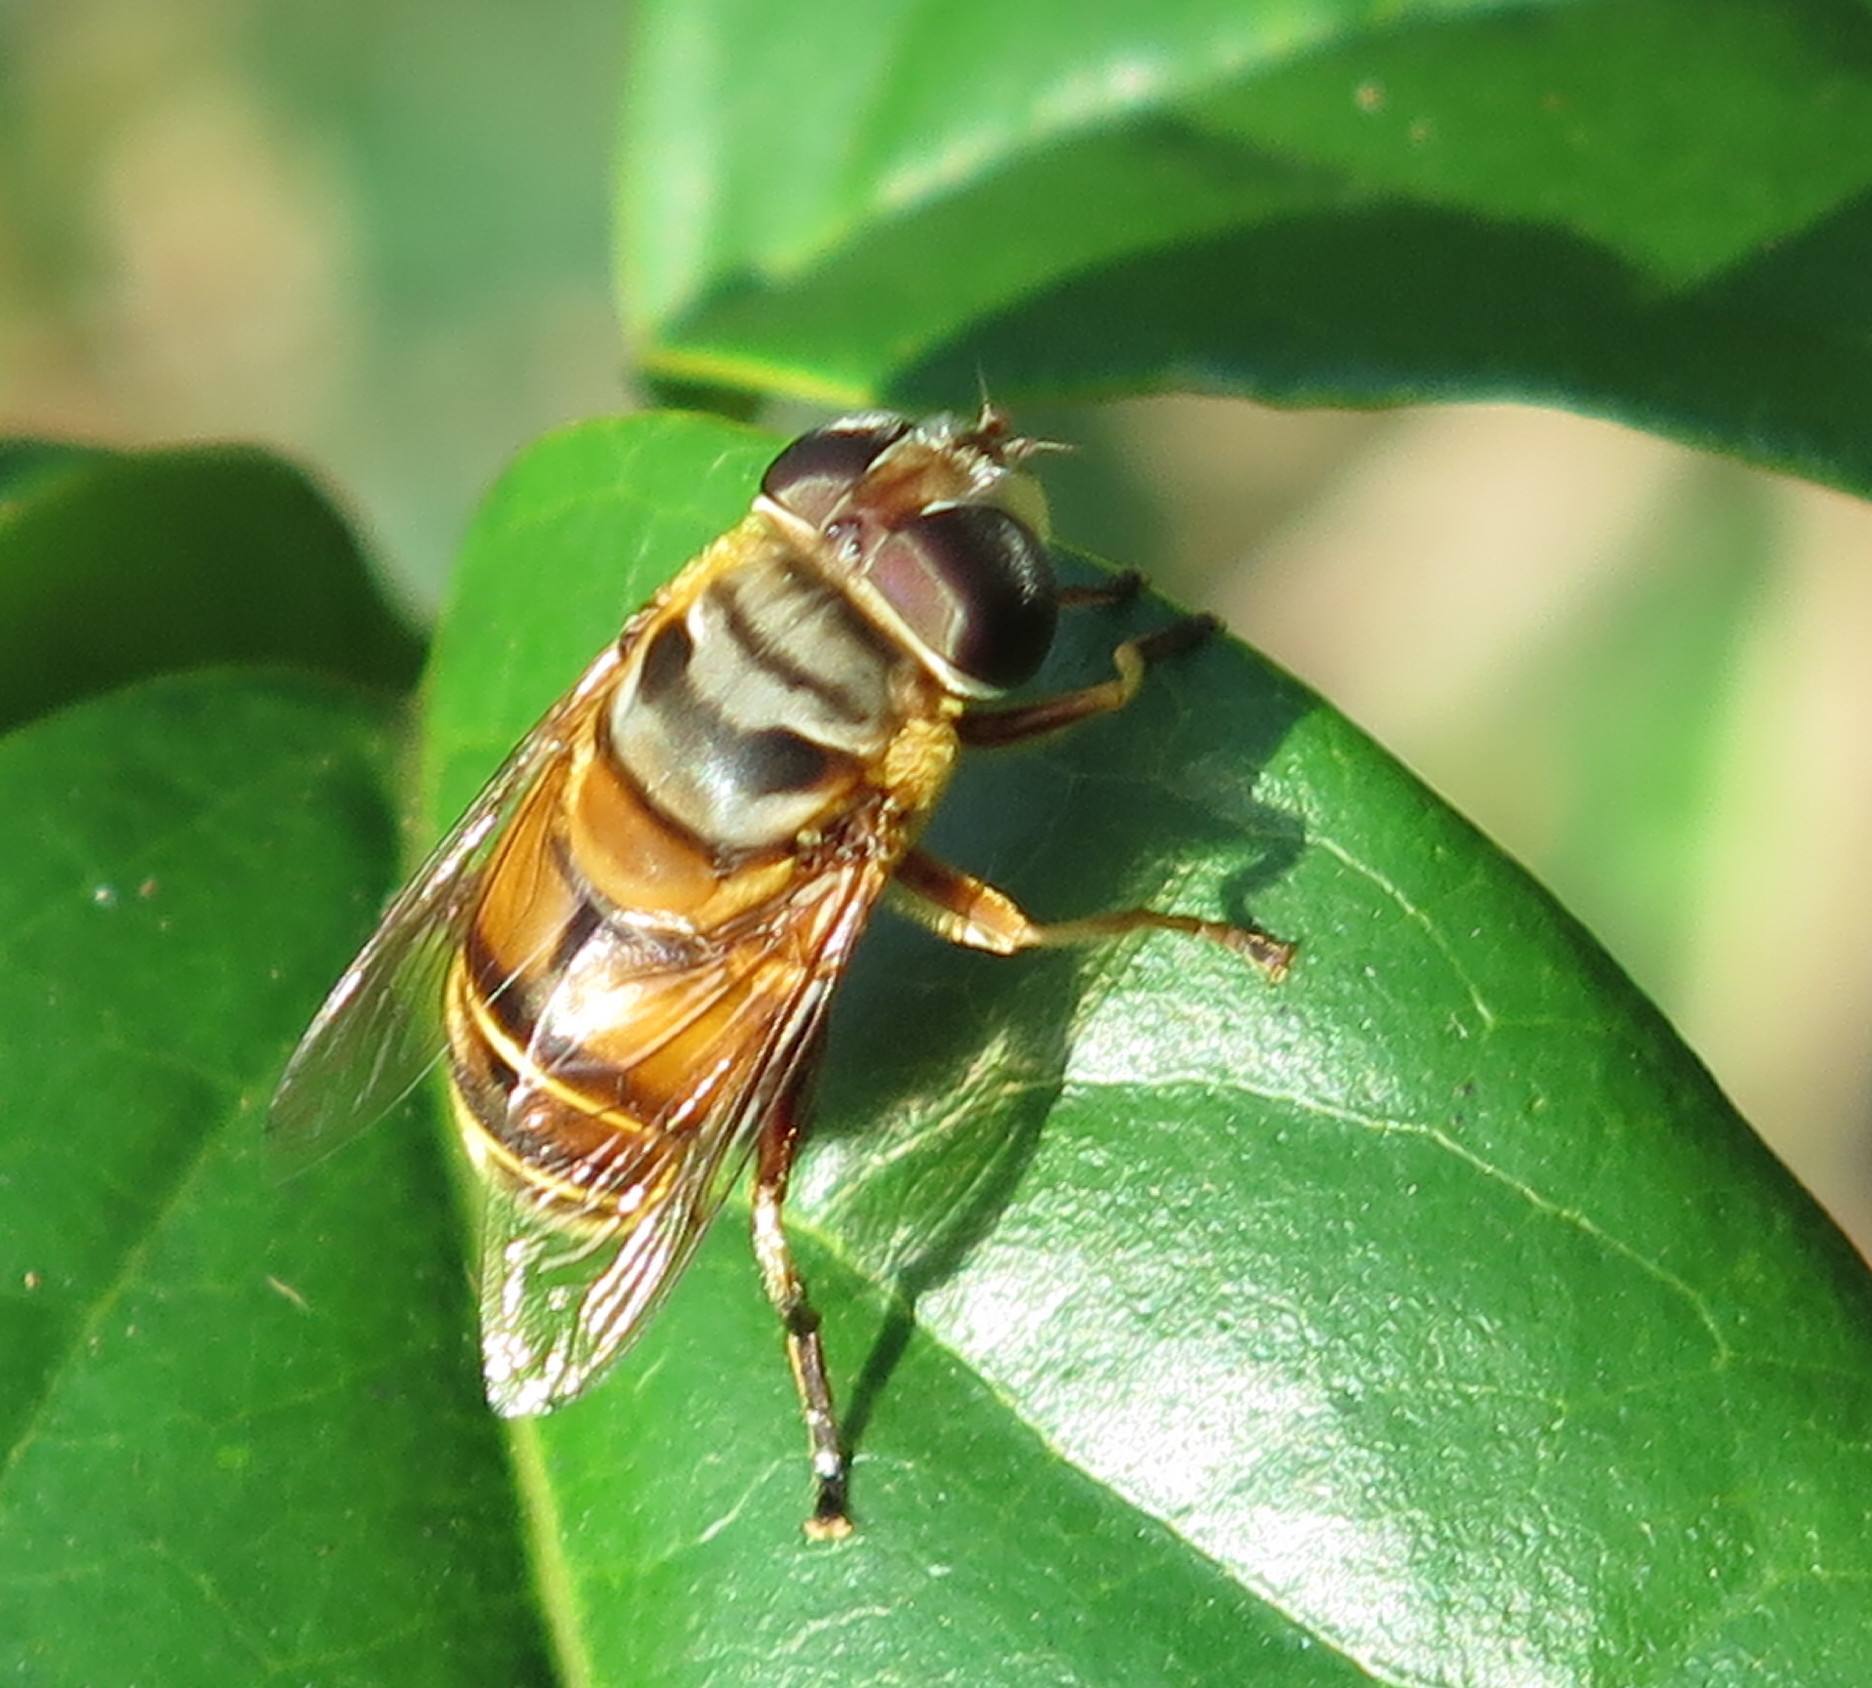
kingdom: Animalia
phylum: Arthropoda
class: Insecta
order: Diptera
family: Syrphidae
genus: Palpada
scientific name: Palpada vinetorum
